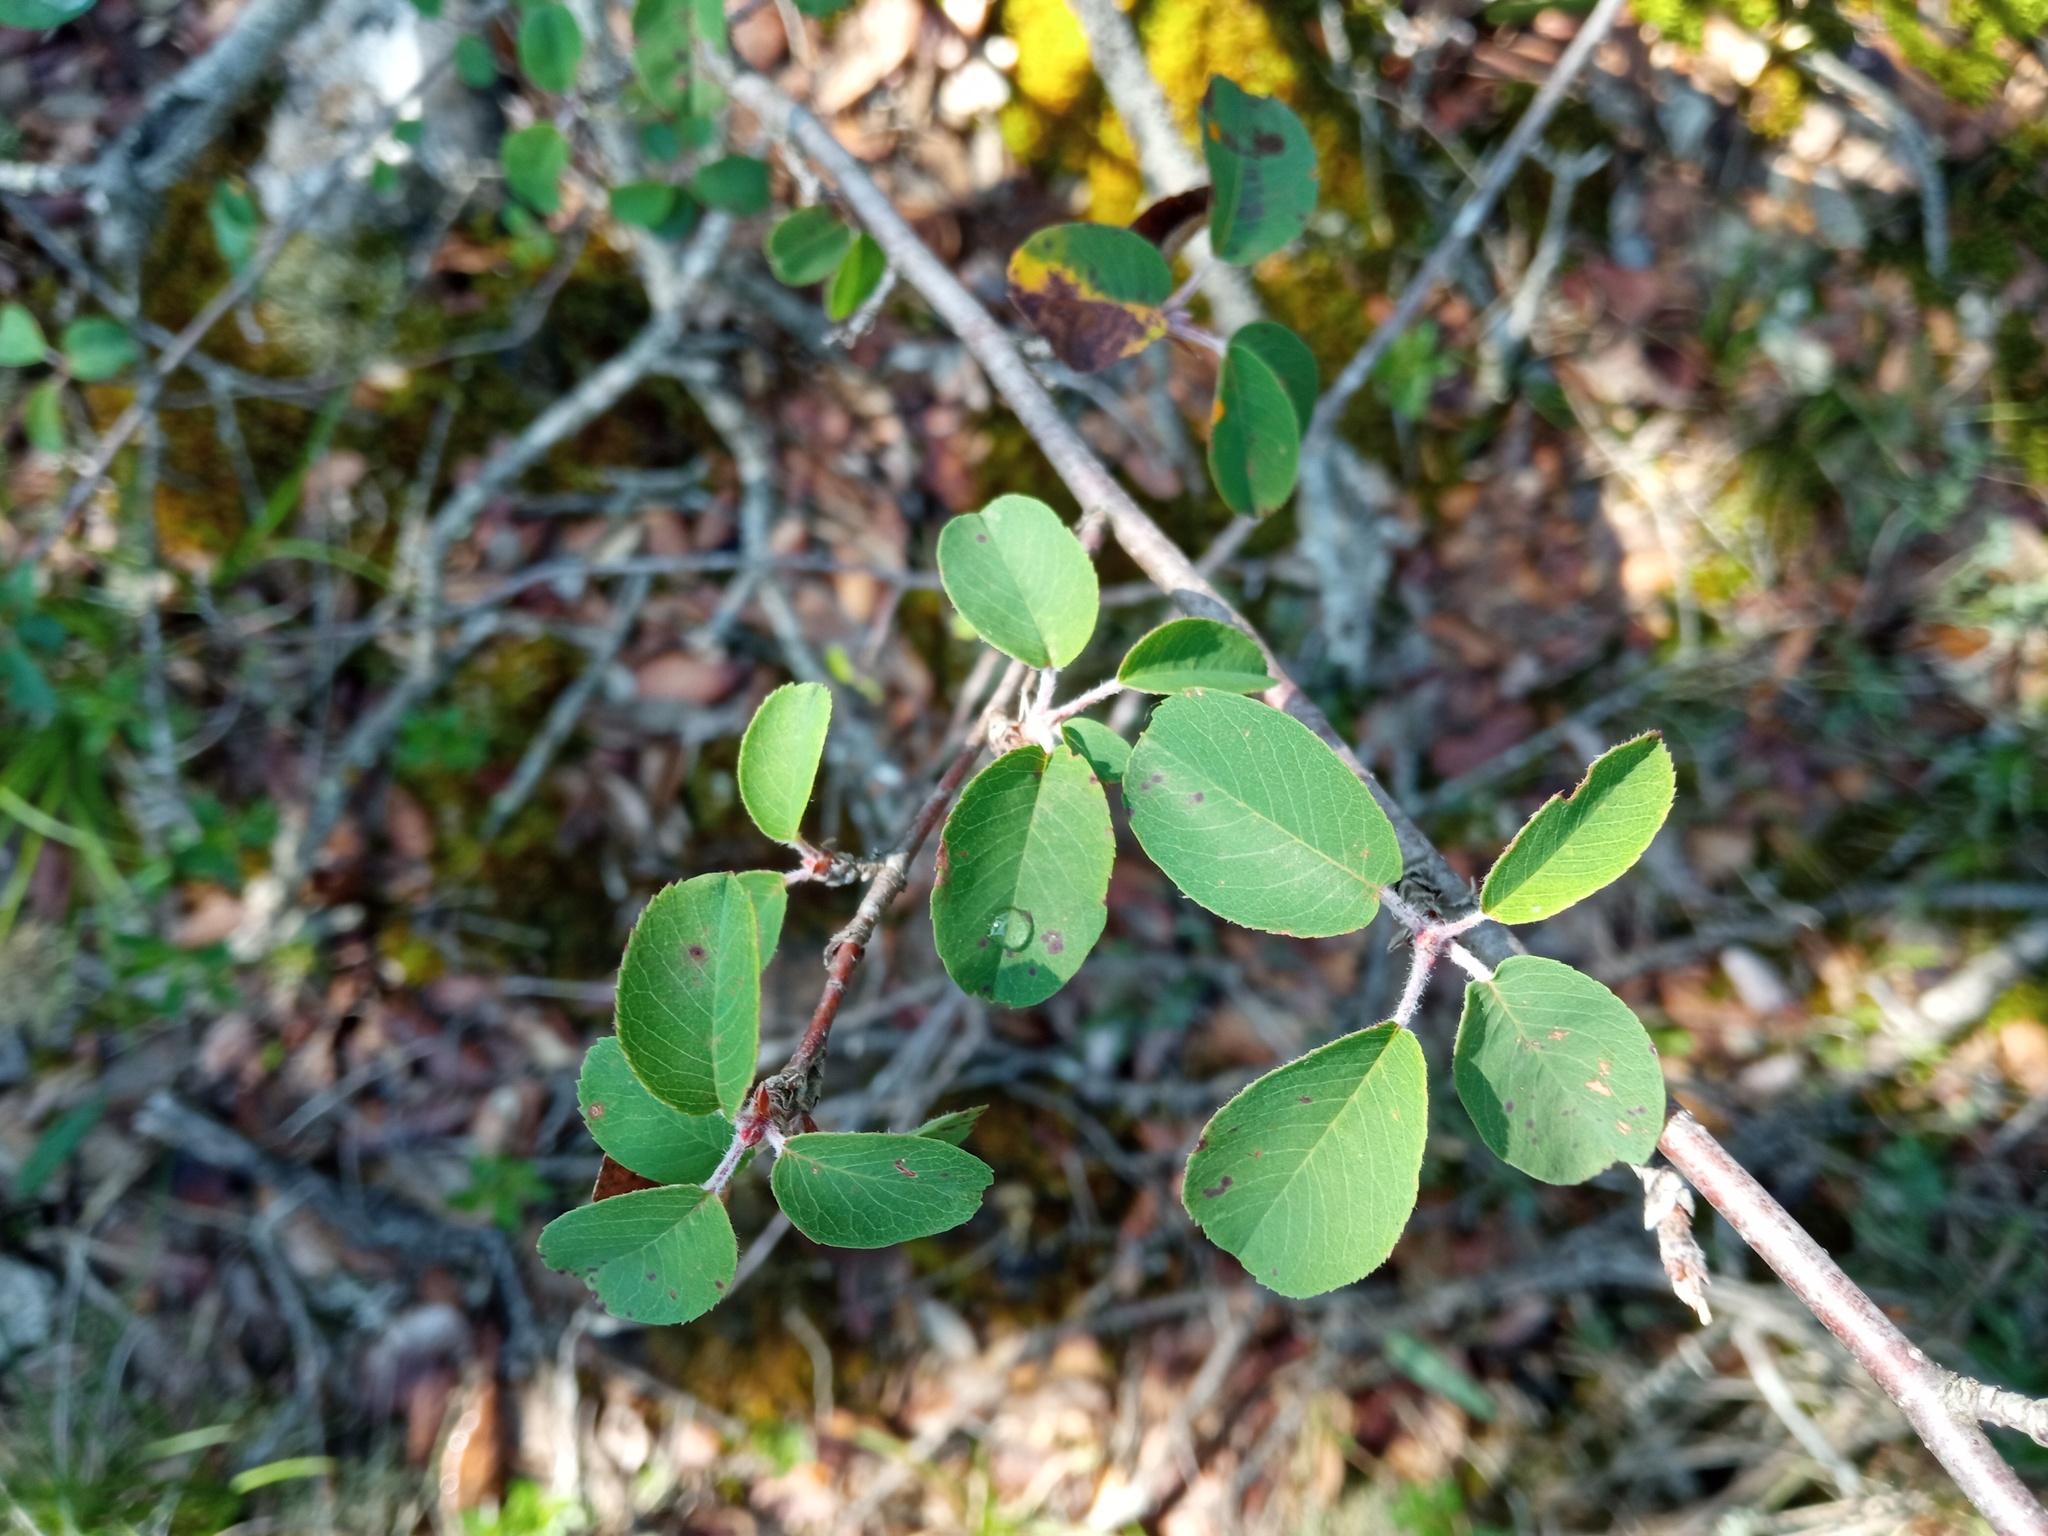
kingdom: Plantae
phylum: Tracheophyta
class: Magnoliopsida
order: Rosales
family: Rosaceae
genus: Amelanchier
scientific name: Amelanchier ovalis
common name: Serviceberry
